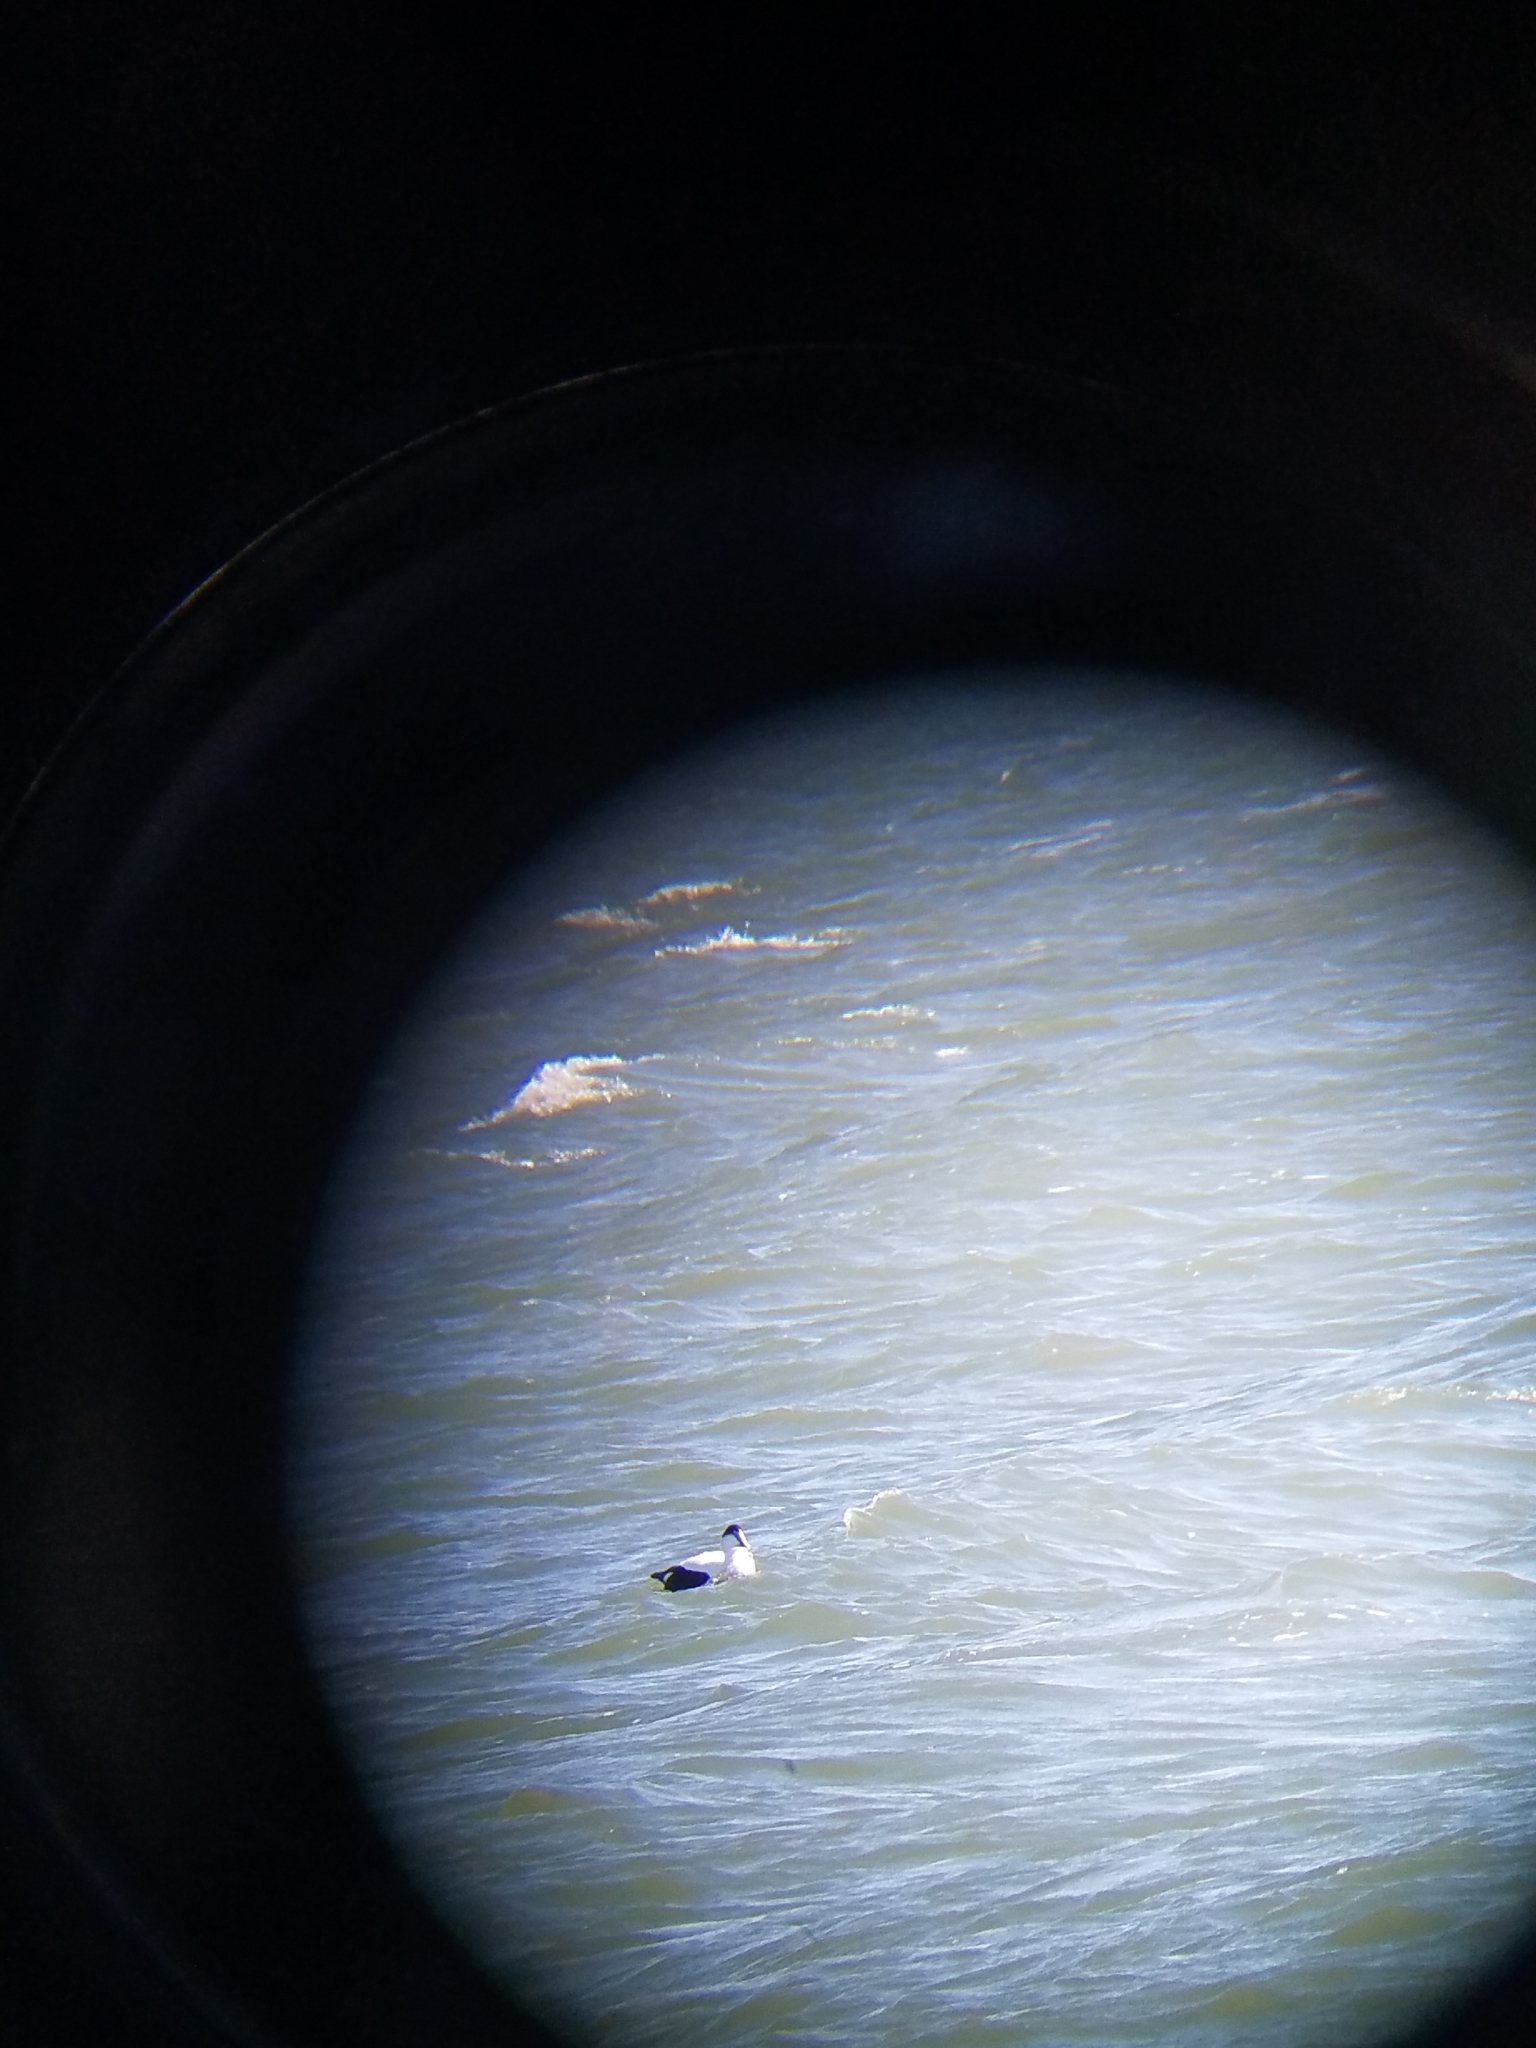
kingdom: Animalia
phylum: Chordata
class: Aves
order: Anseriformes
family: Anatidae
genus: Somateria
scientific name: Somateria mollissima
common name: Common eider
